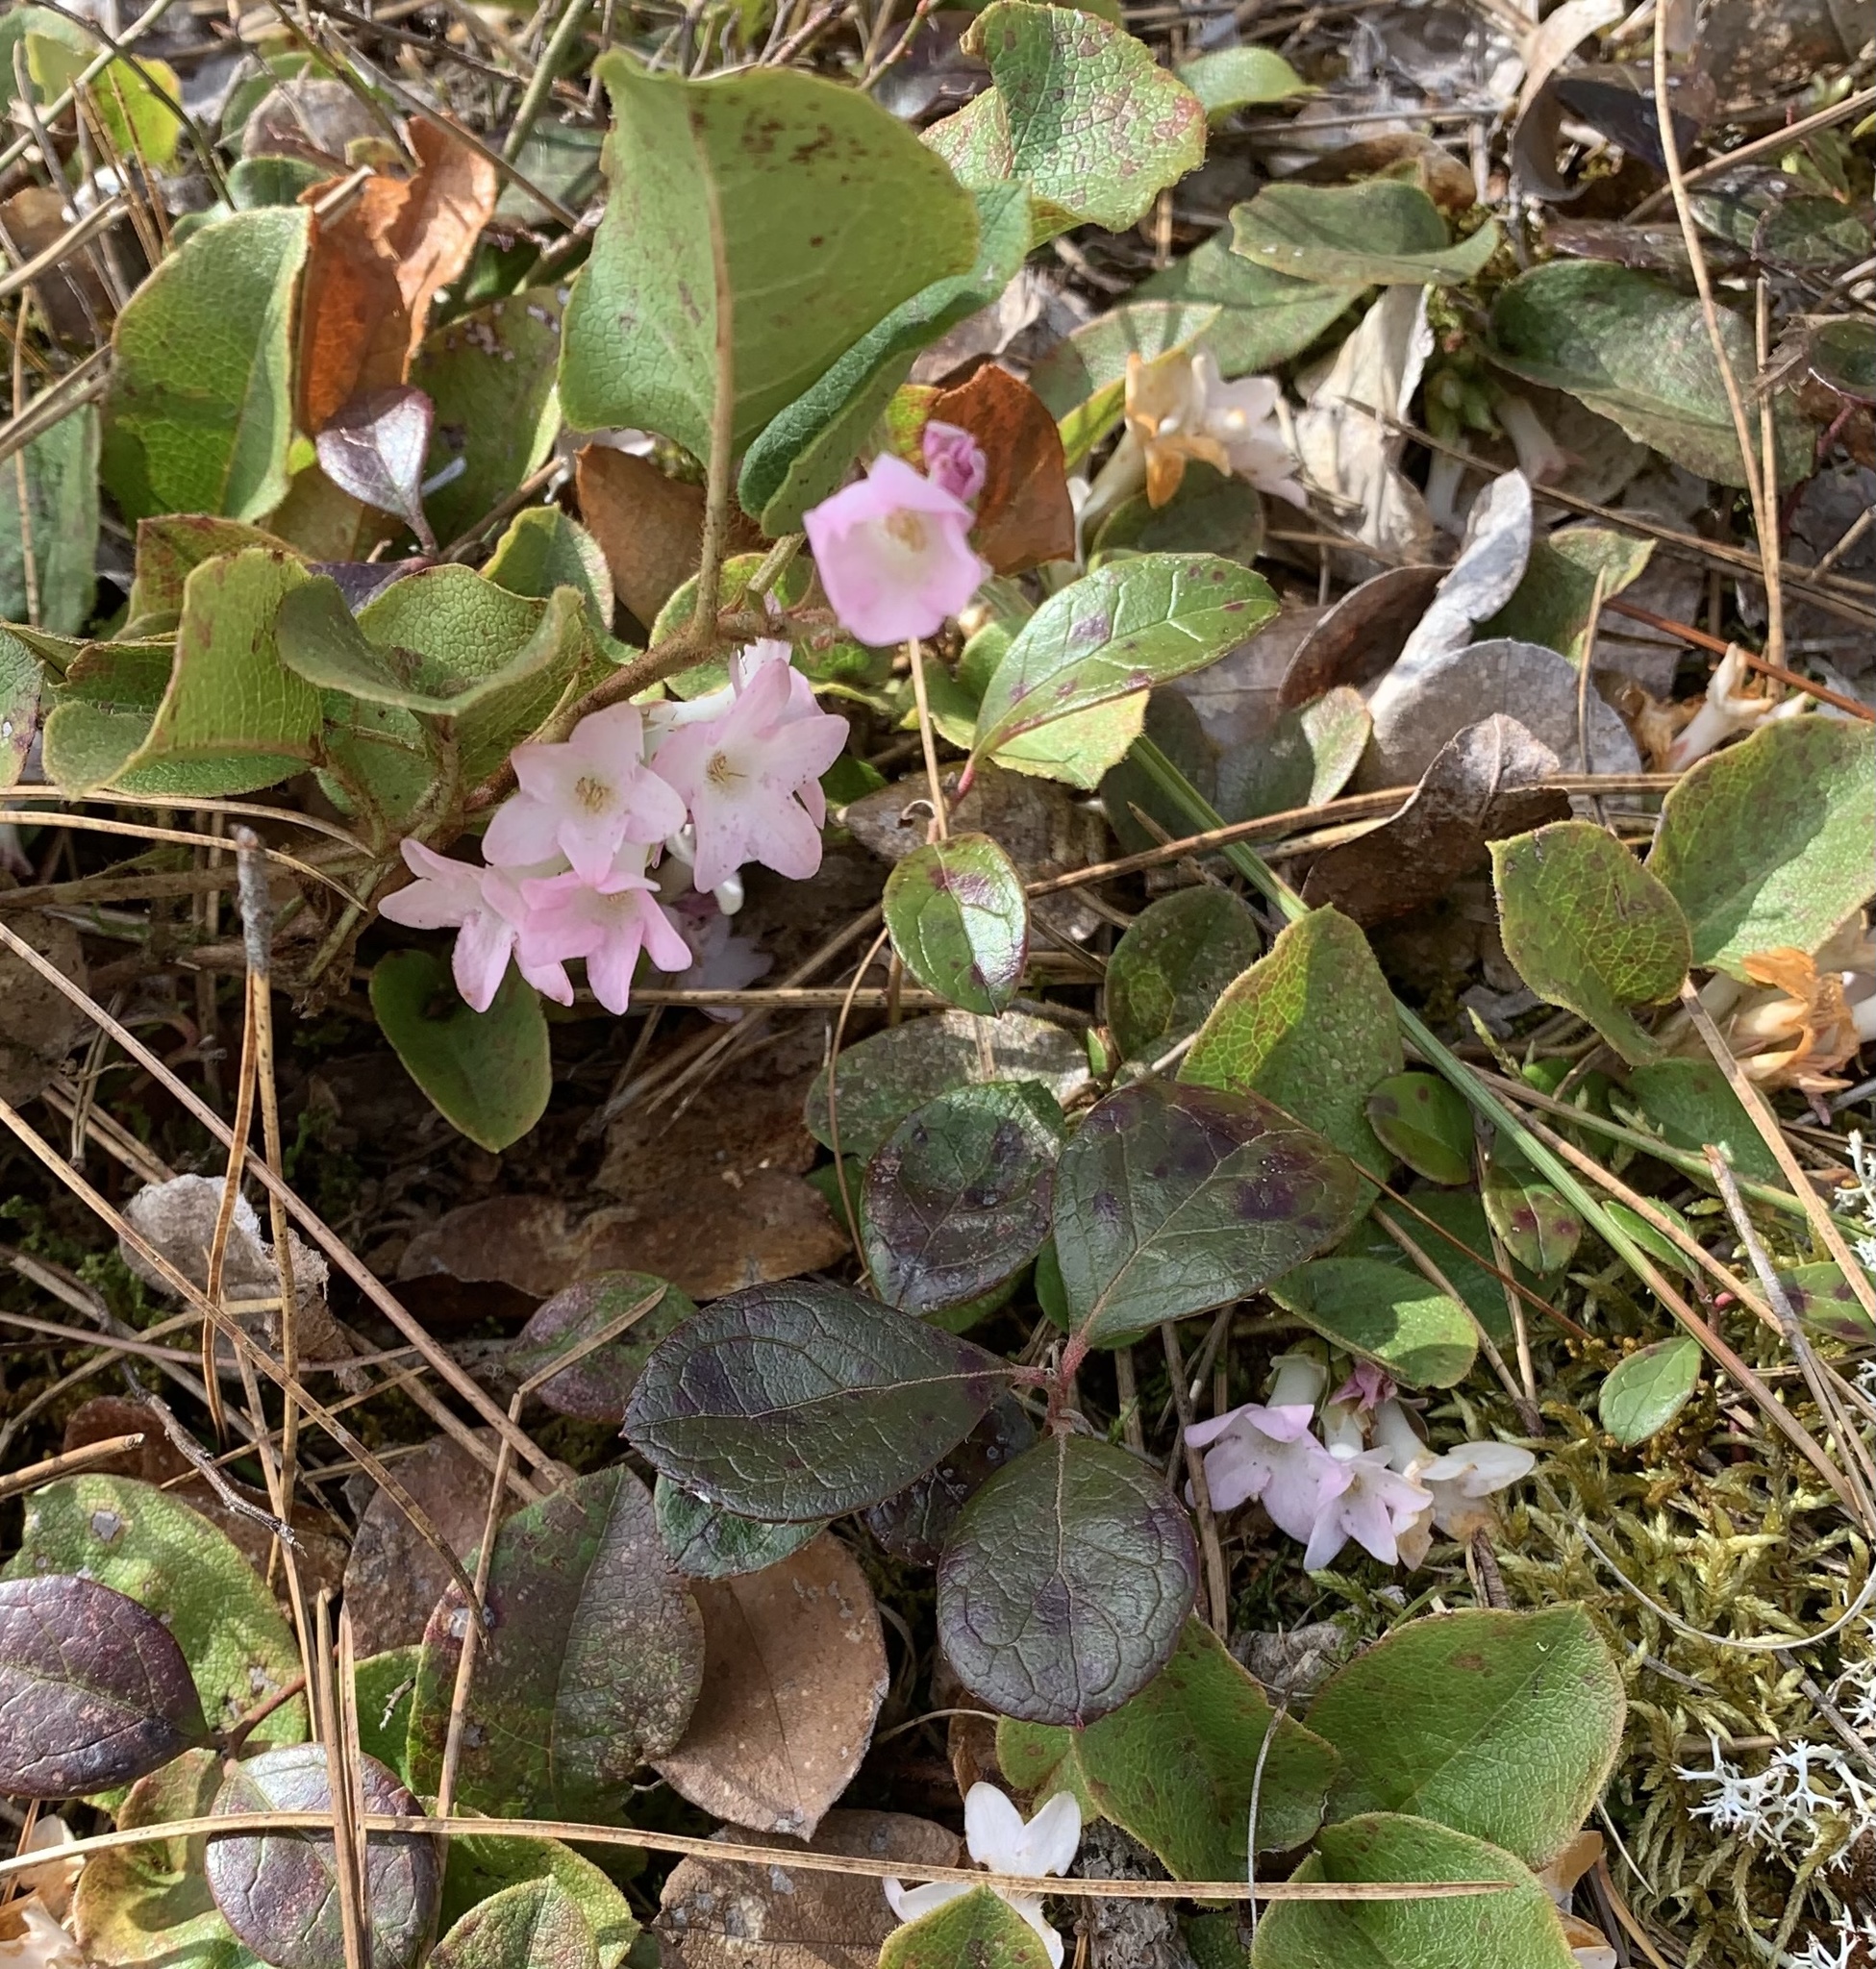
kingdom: Plantae
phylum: Tracheophyta
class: Magnoliopsida
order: Ericales
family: Ericaceae
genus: Epigaea
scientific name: Epigaea repens
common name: Gravelroot
